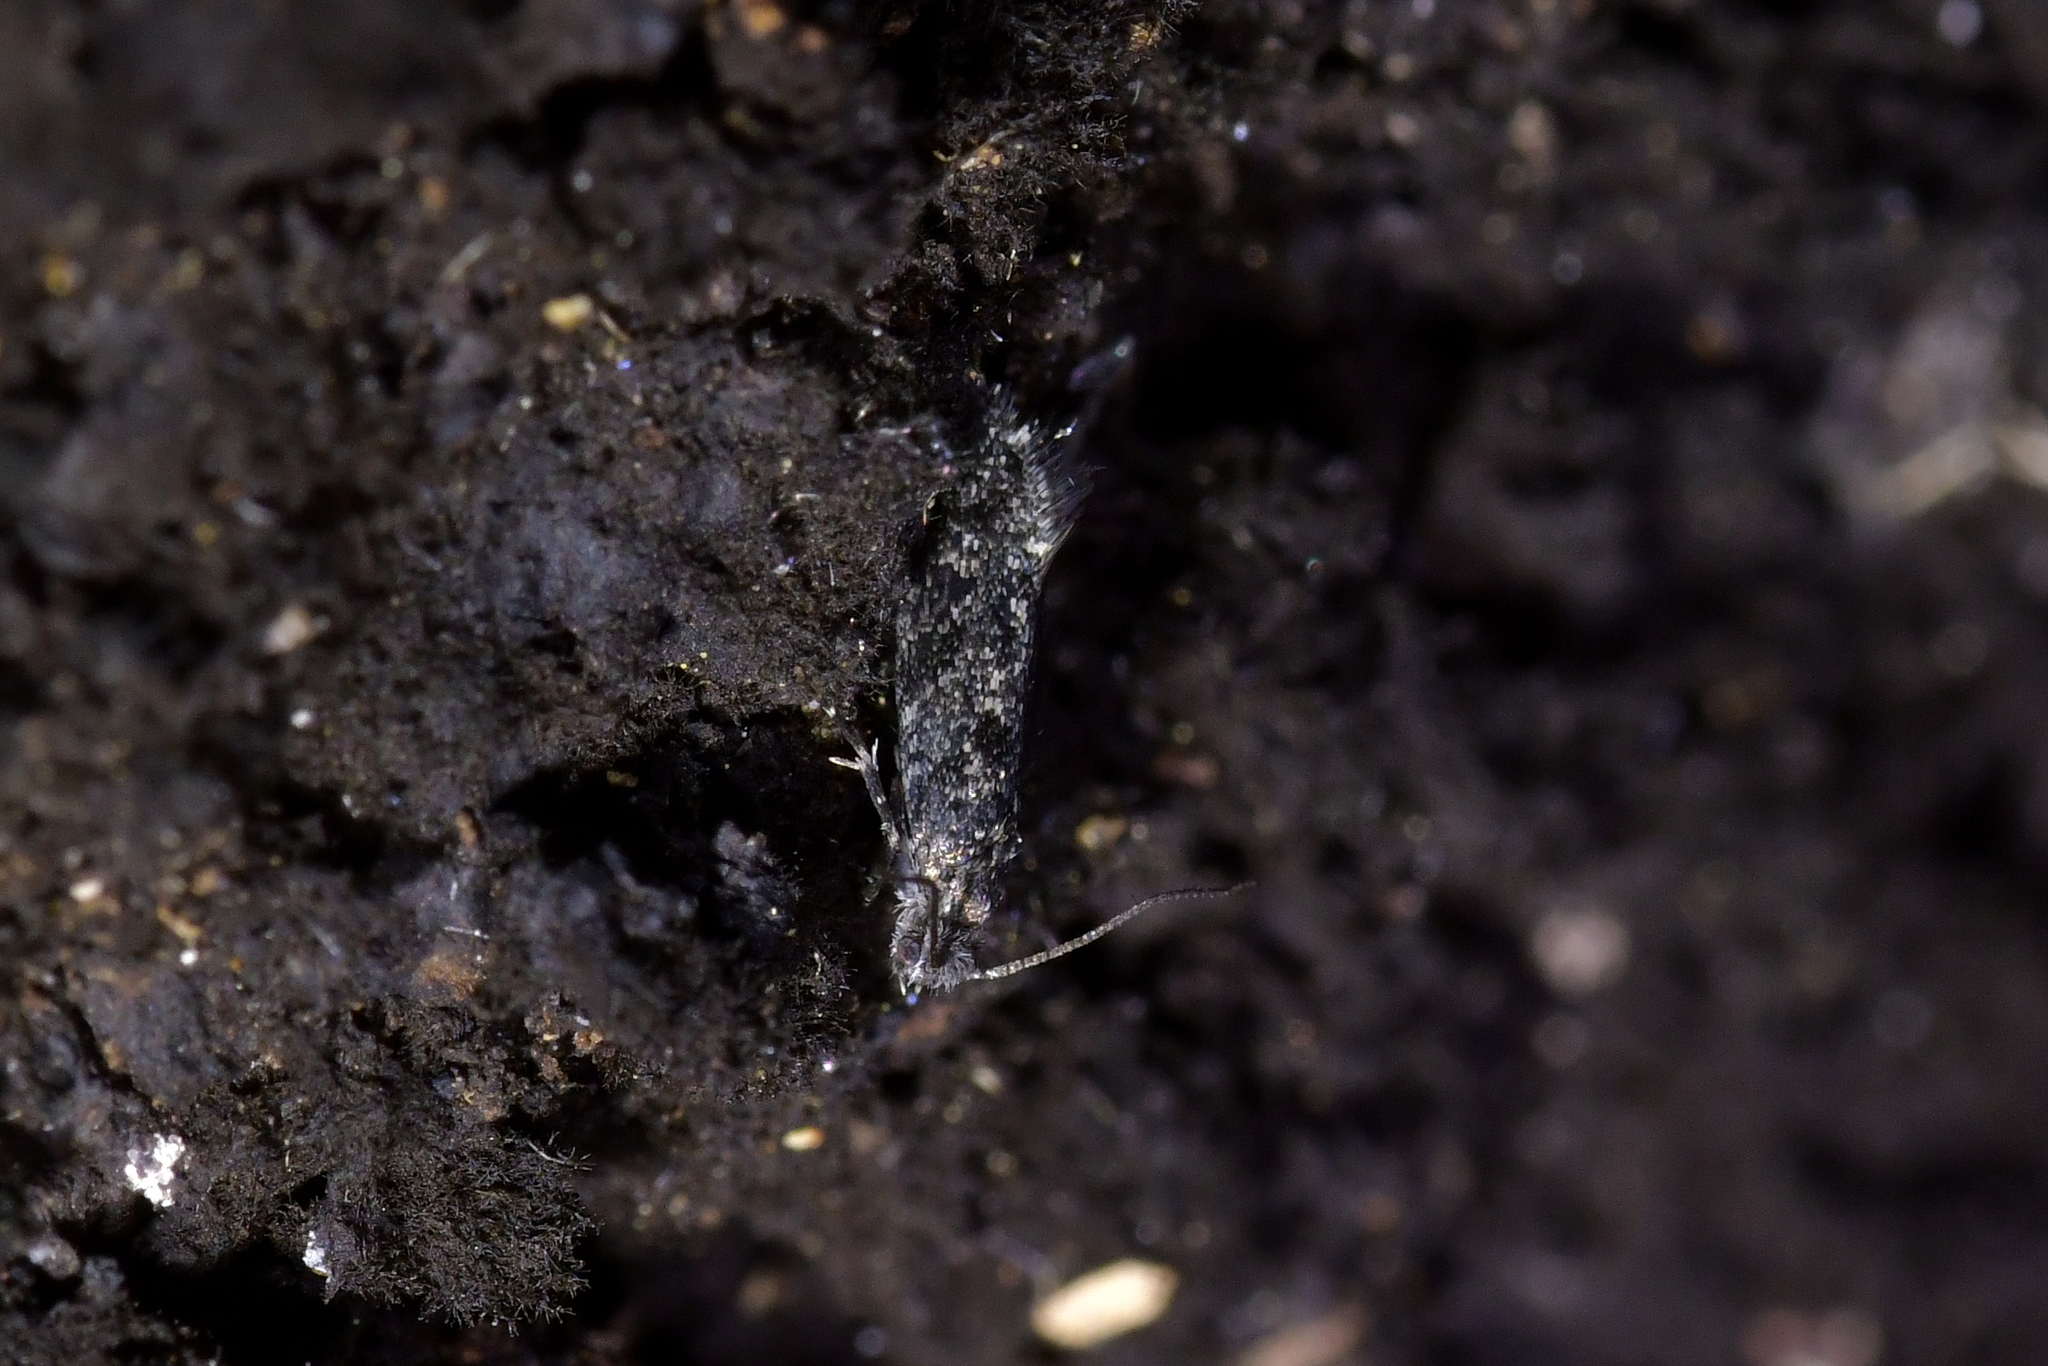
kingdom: Animalia
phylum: Arthropoda
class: Insecta
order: Lepidoptera
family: Tineidae
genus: Tinea
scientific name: Tinea fagicola
